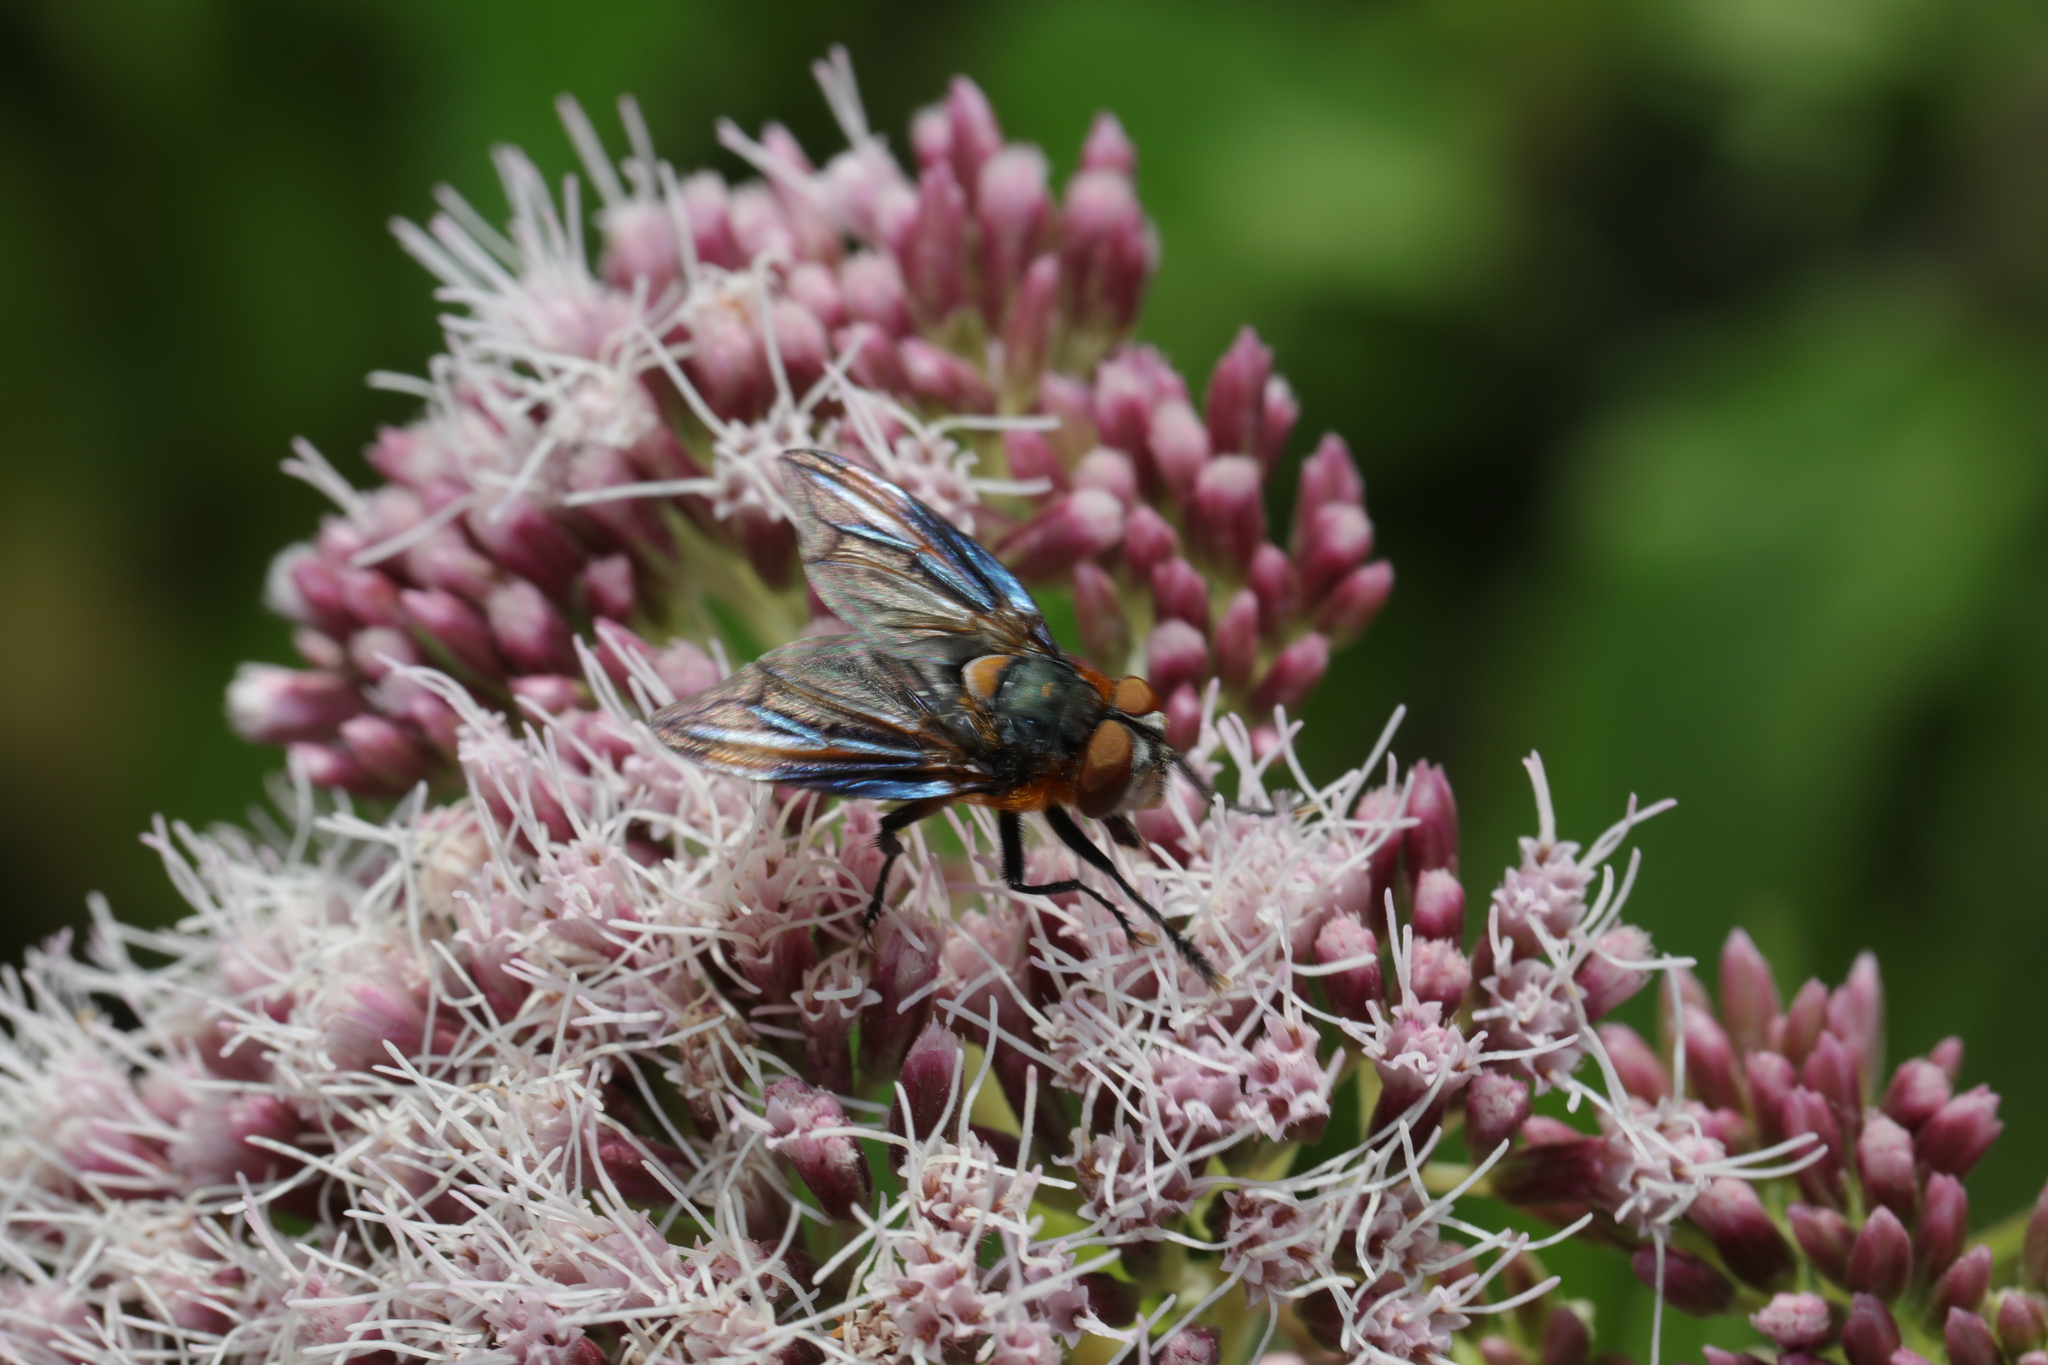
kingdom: Animalia
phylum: Arthropoda
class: Insecta
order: Diptera
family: Tachinidae
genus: Phasia
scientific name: Phasia hemiptera
